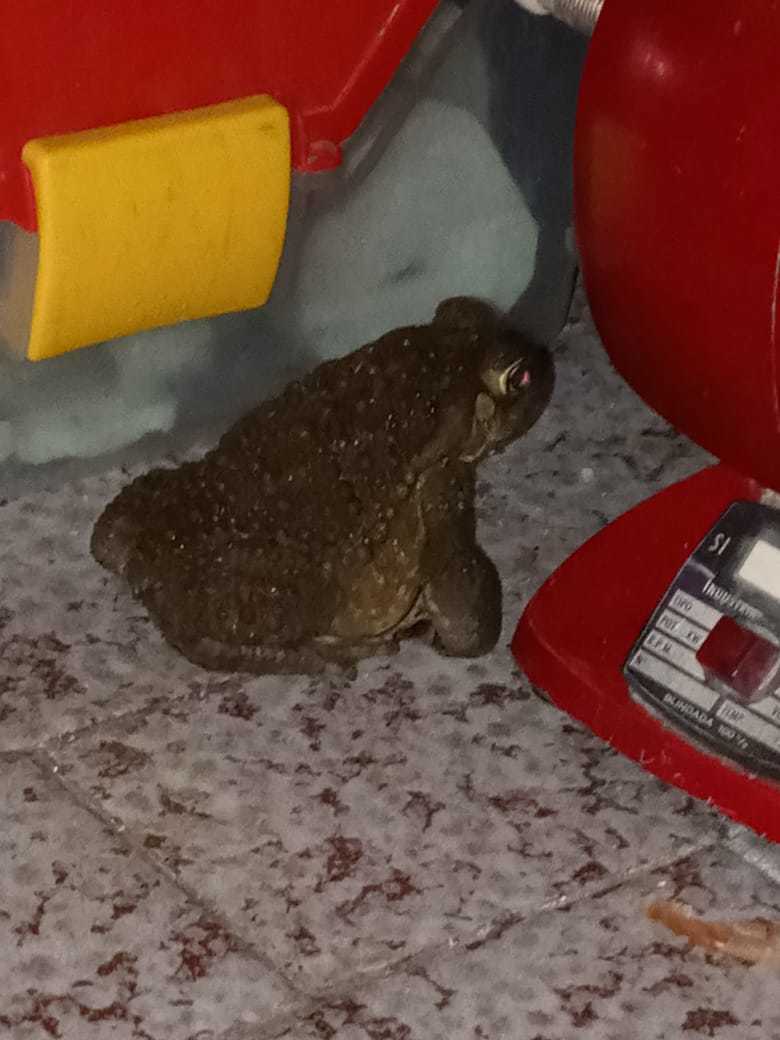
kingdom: Animalia
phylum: Chordata
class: Amphibia
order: Anura
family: Bufonidae
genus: Rhinella
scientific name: Rhinella arenarum
